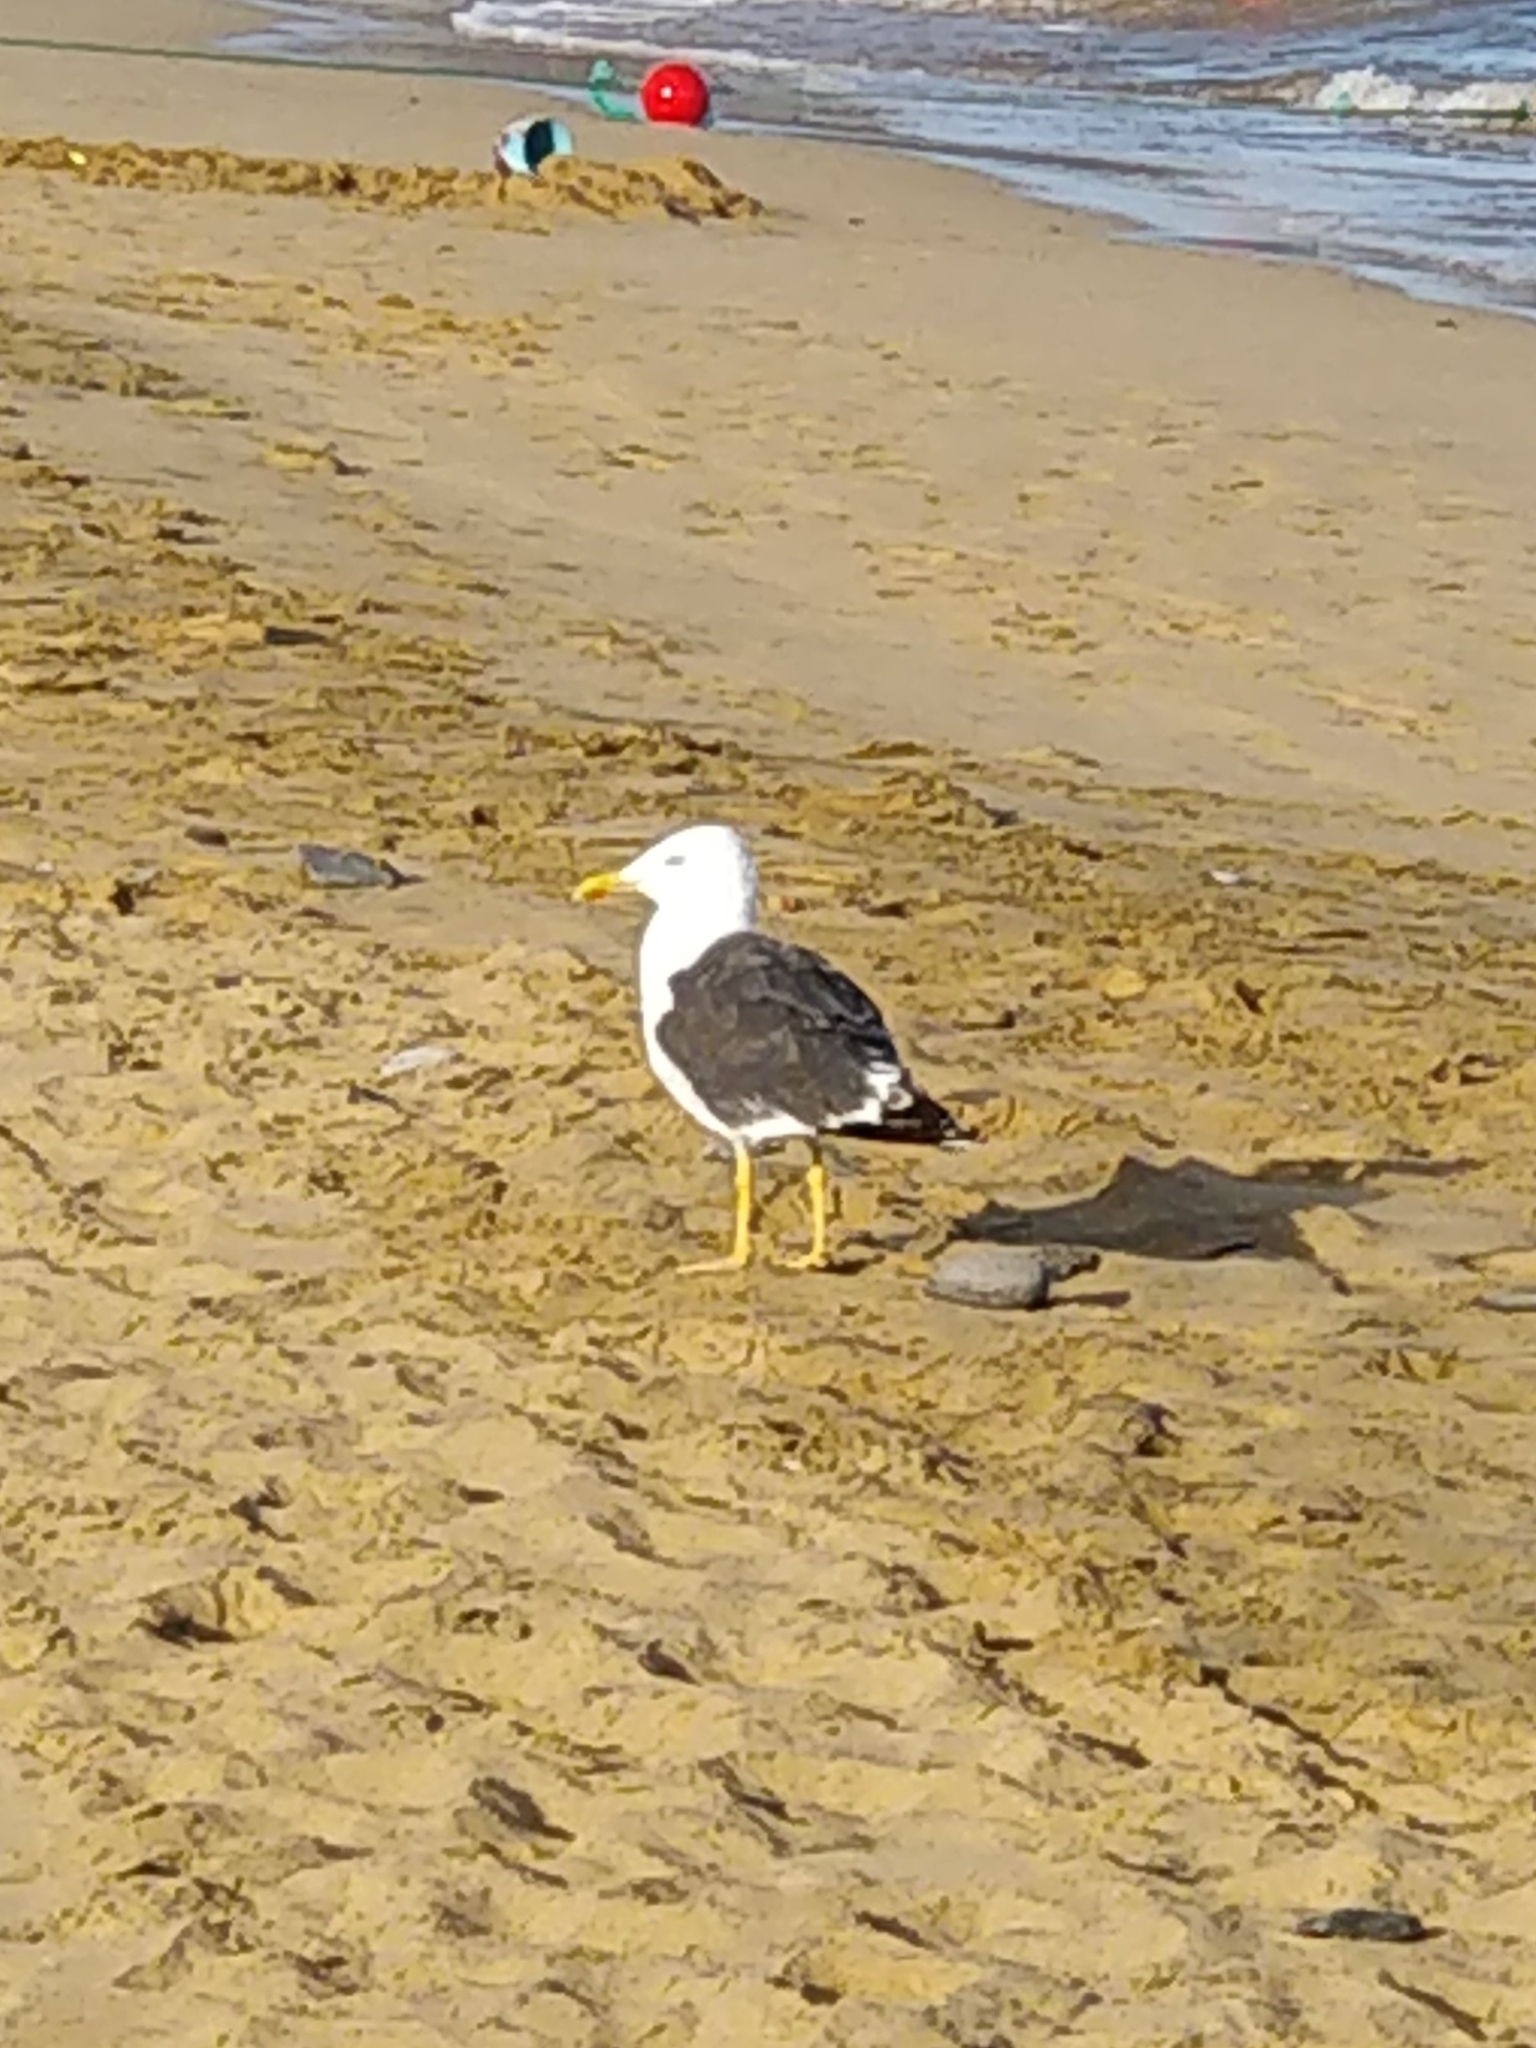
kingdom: Animalia
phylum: Chordata
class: Aves
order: Charadriiformes
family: Laridae
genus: Larus
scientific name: Larus fuscus
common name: Lesser black-backed gull
